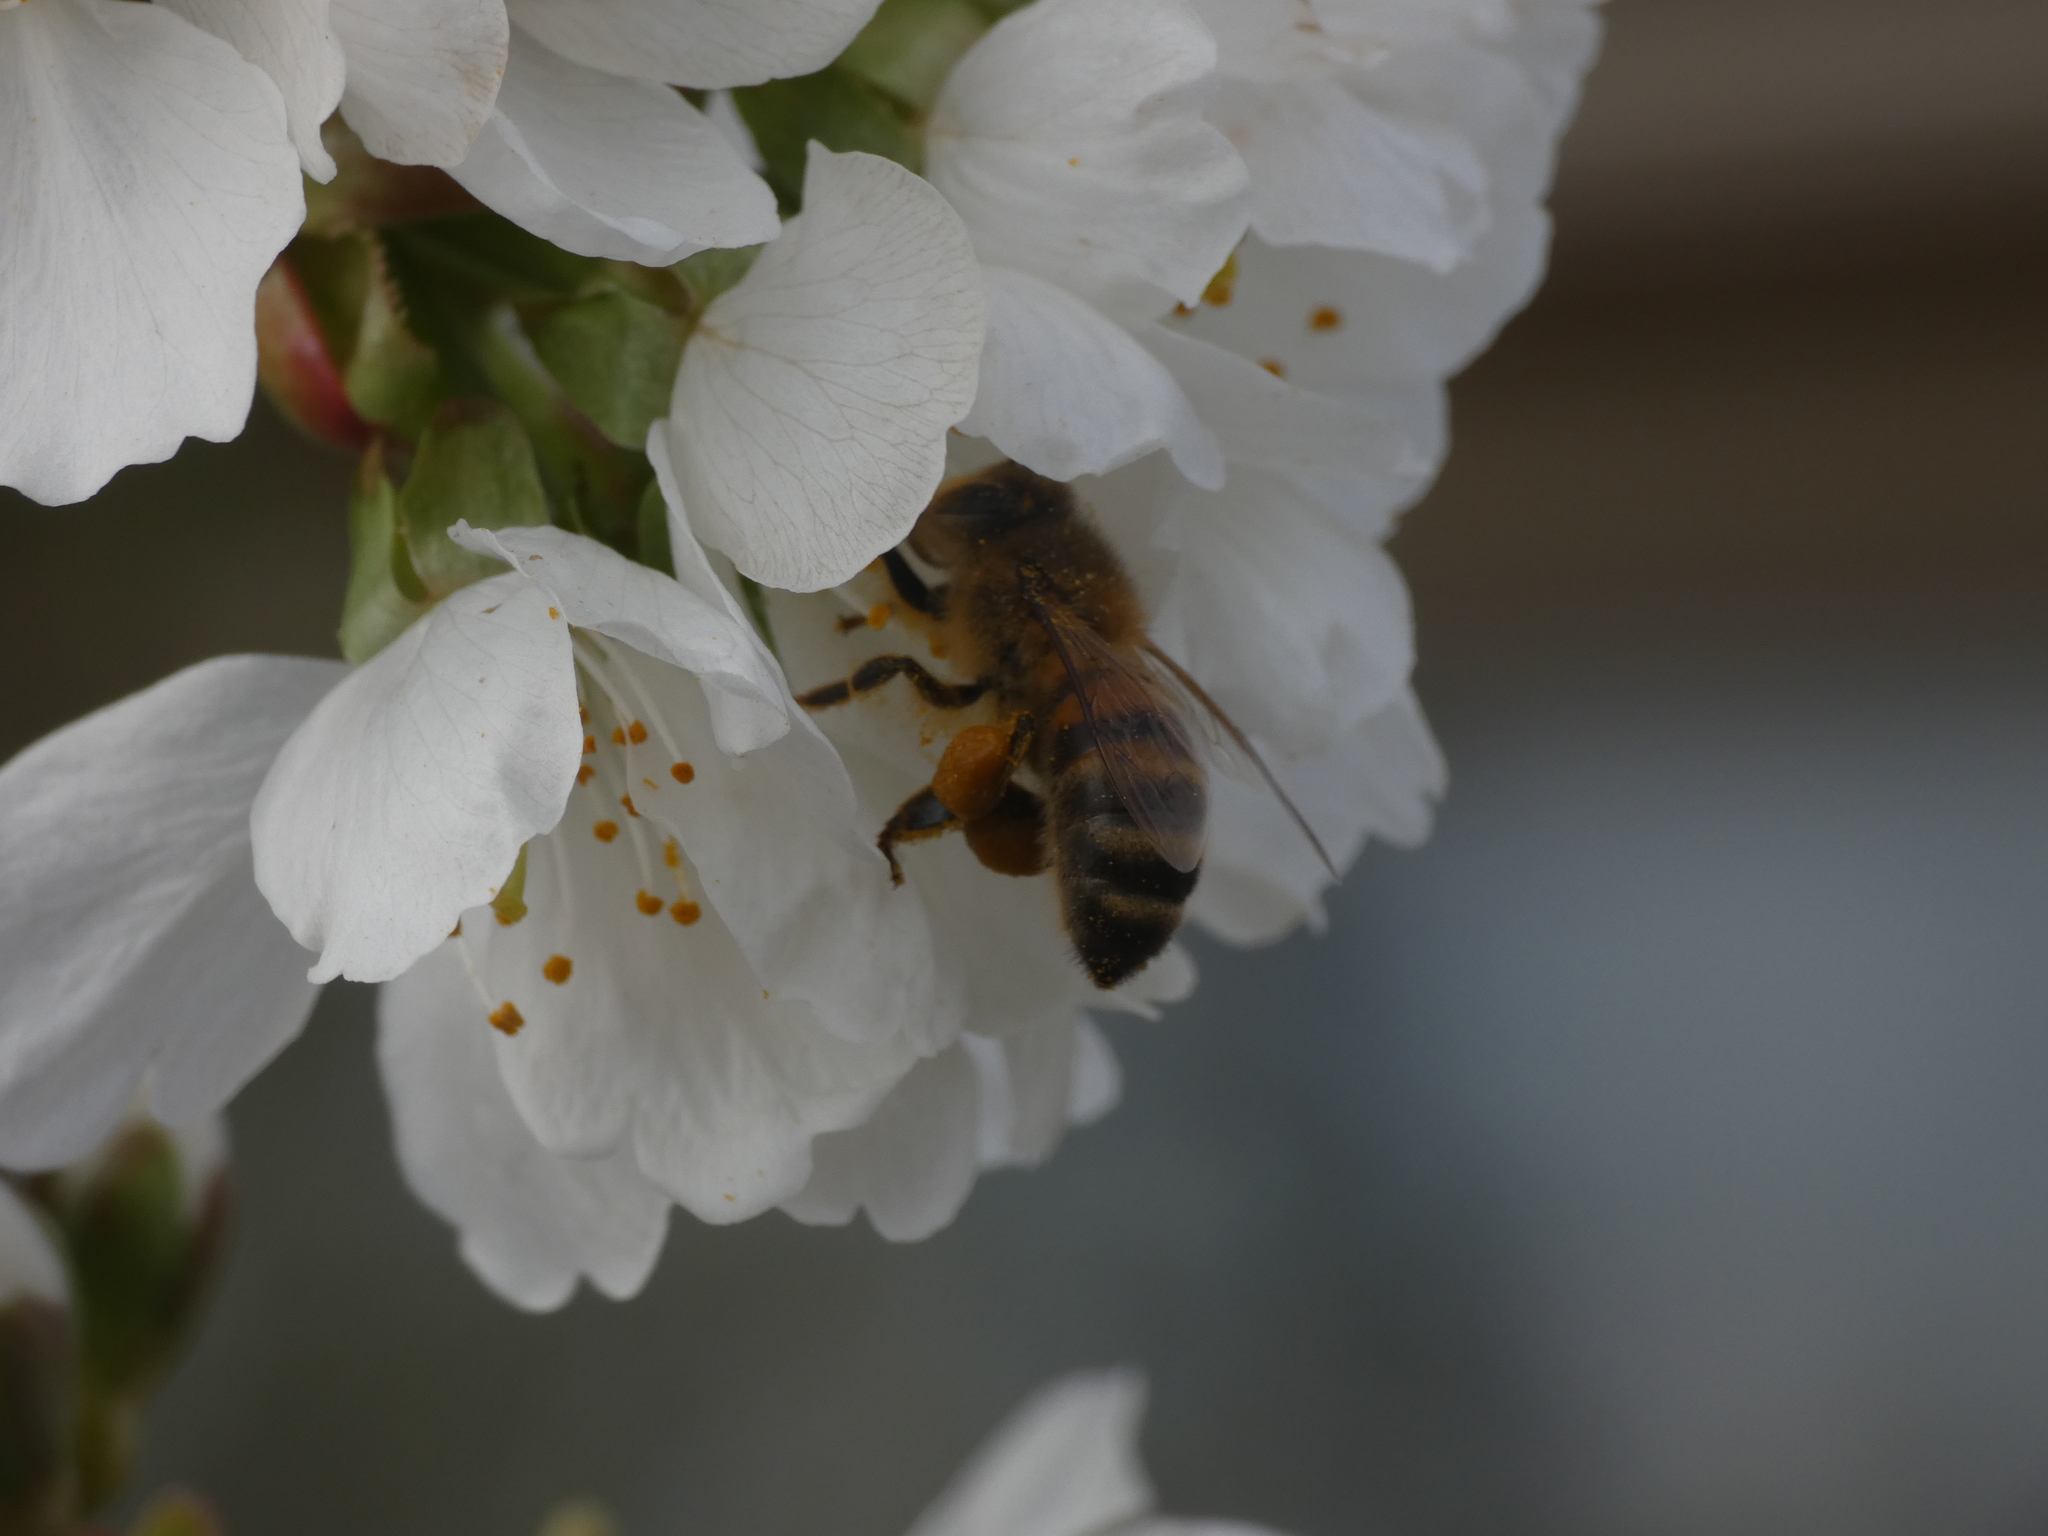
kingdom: Animalia
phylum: Arthropoda
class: Insecta
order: Hymenoptera
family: Apidae
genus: Apis
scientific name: Apis mellifera
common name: Honey bee
